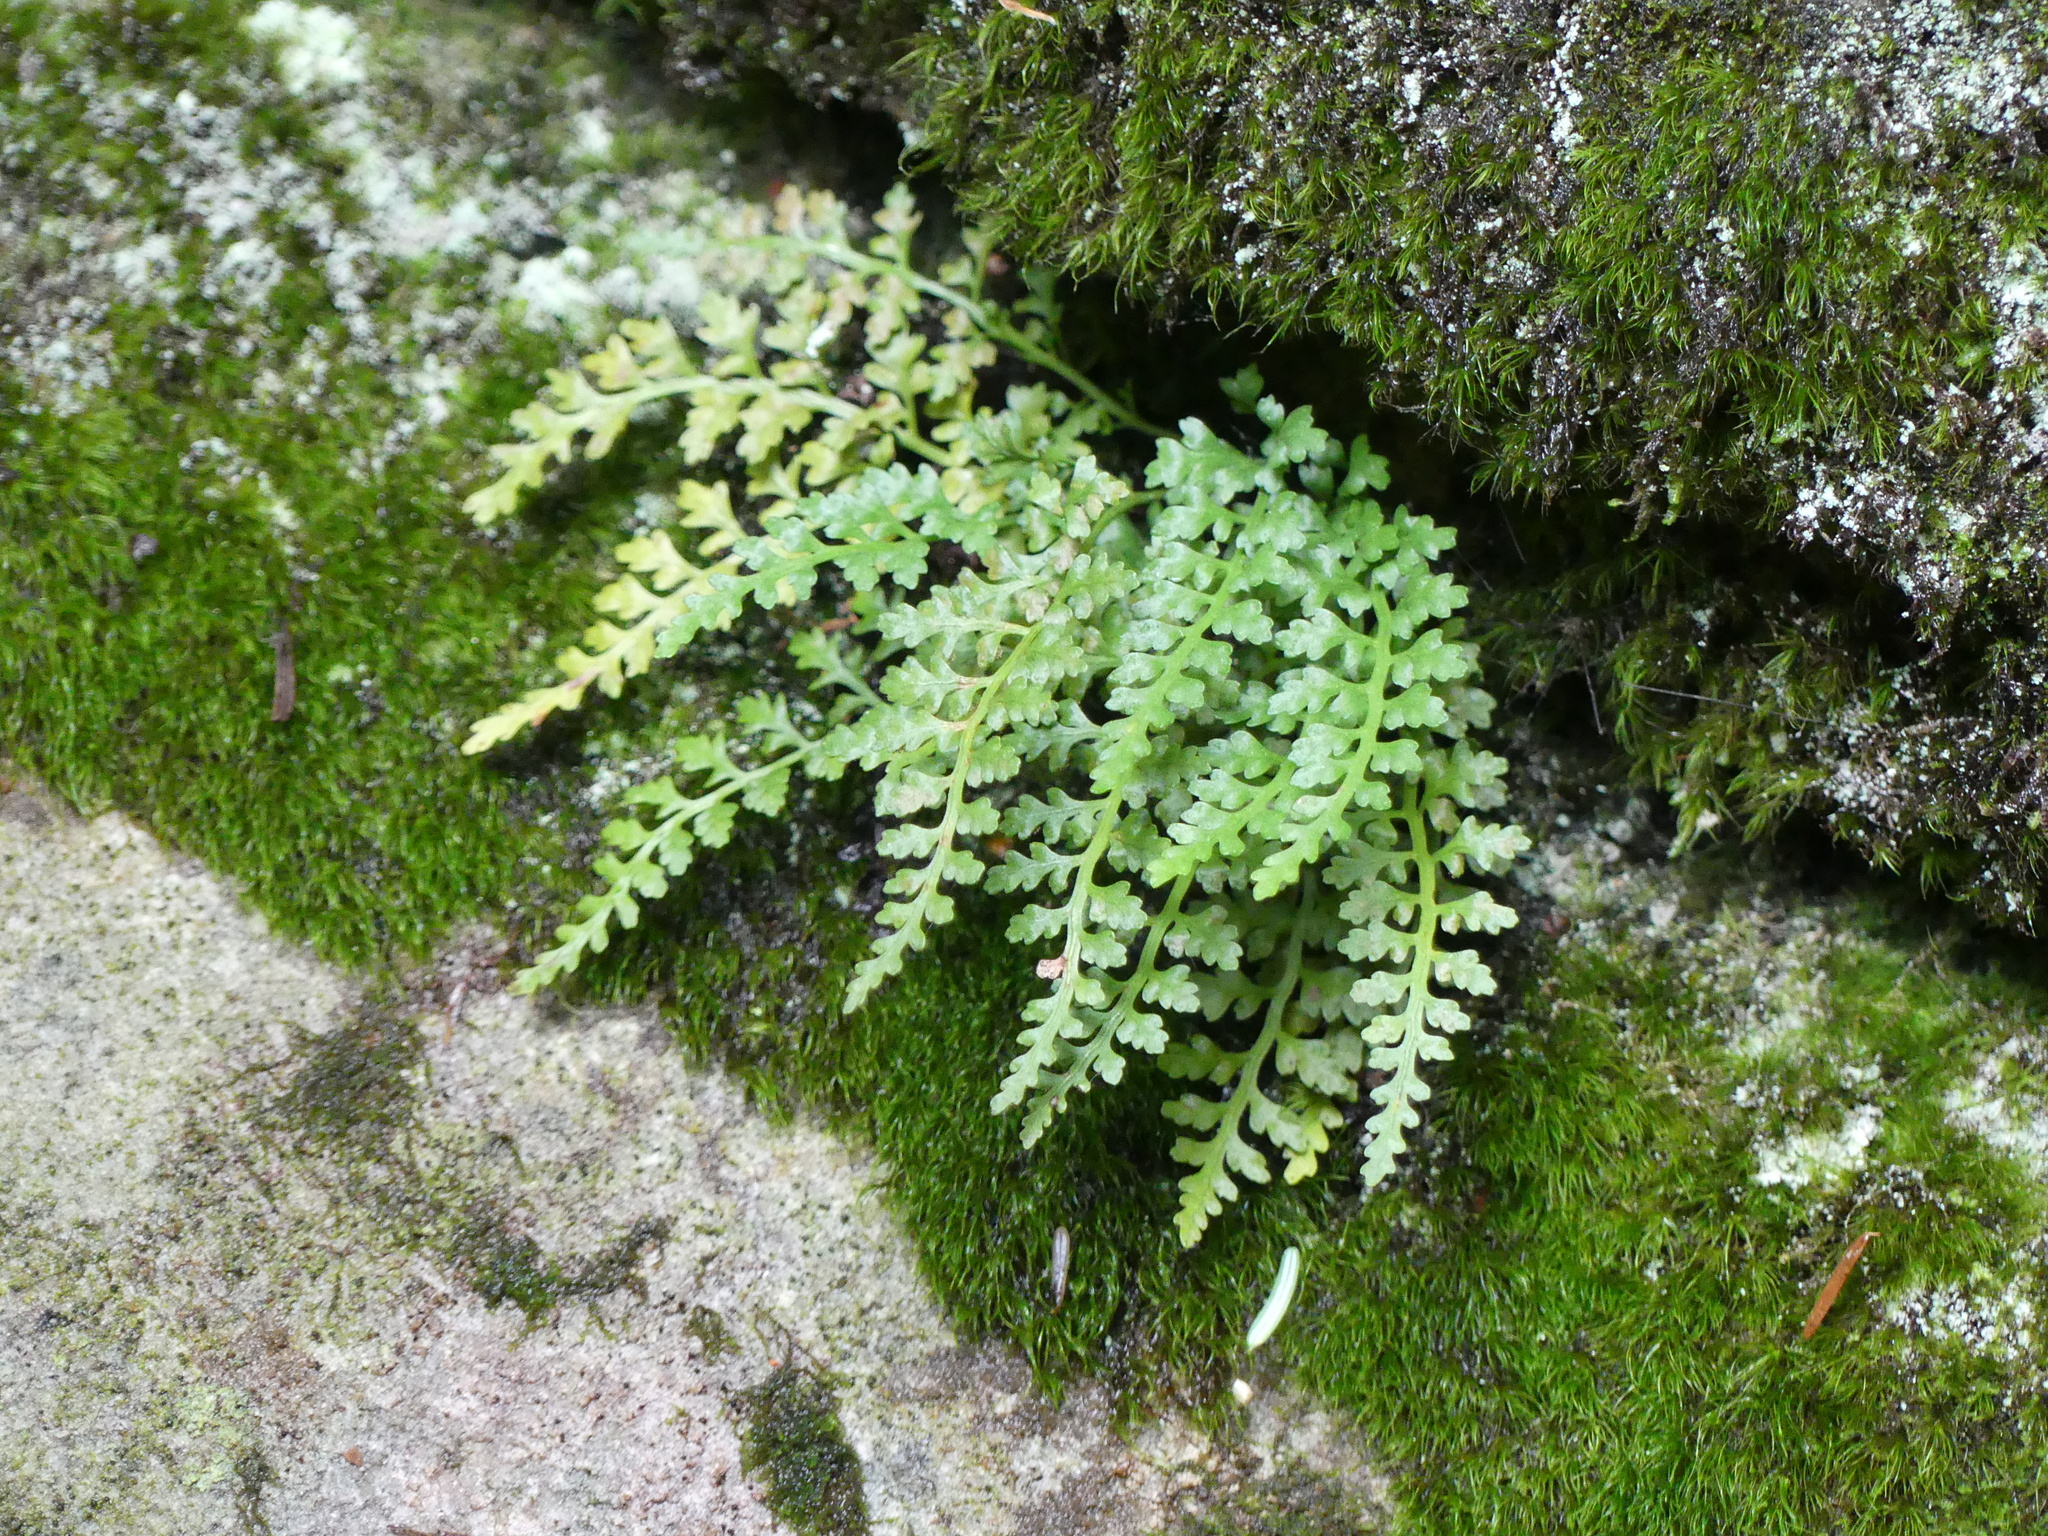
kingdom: Plantae
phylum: Tracheophyta
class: Polypodiopsida
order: Polypodiales
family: Aspleniaceae
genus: Asplenium
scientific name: Asplenium montanum
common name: Mountain spleenwort
